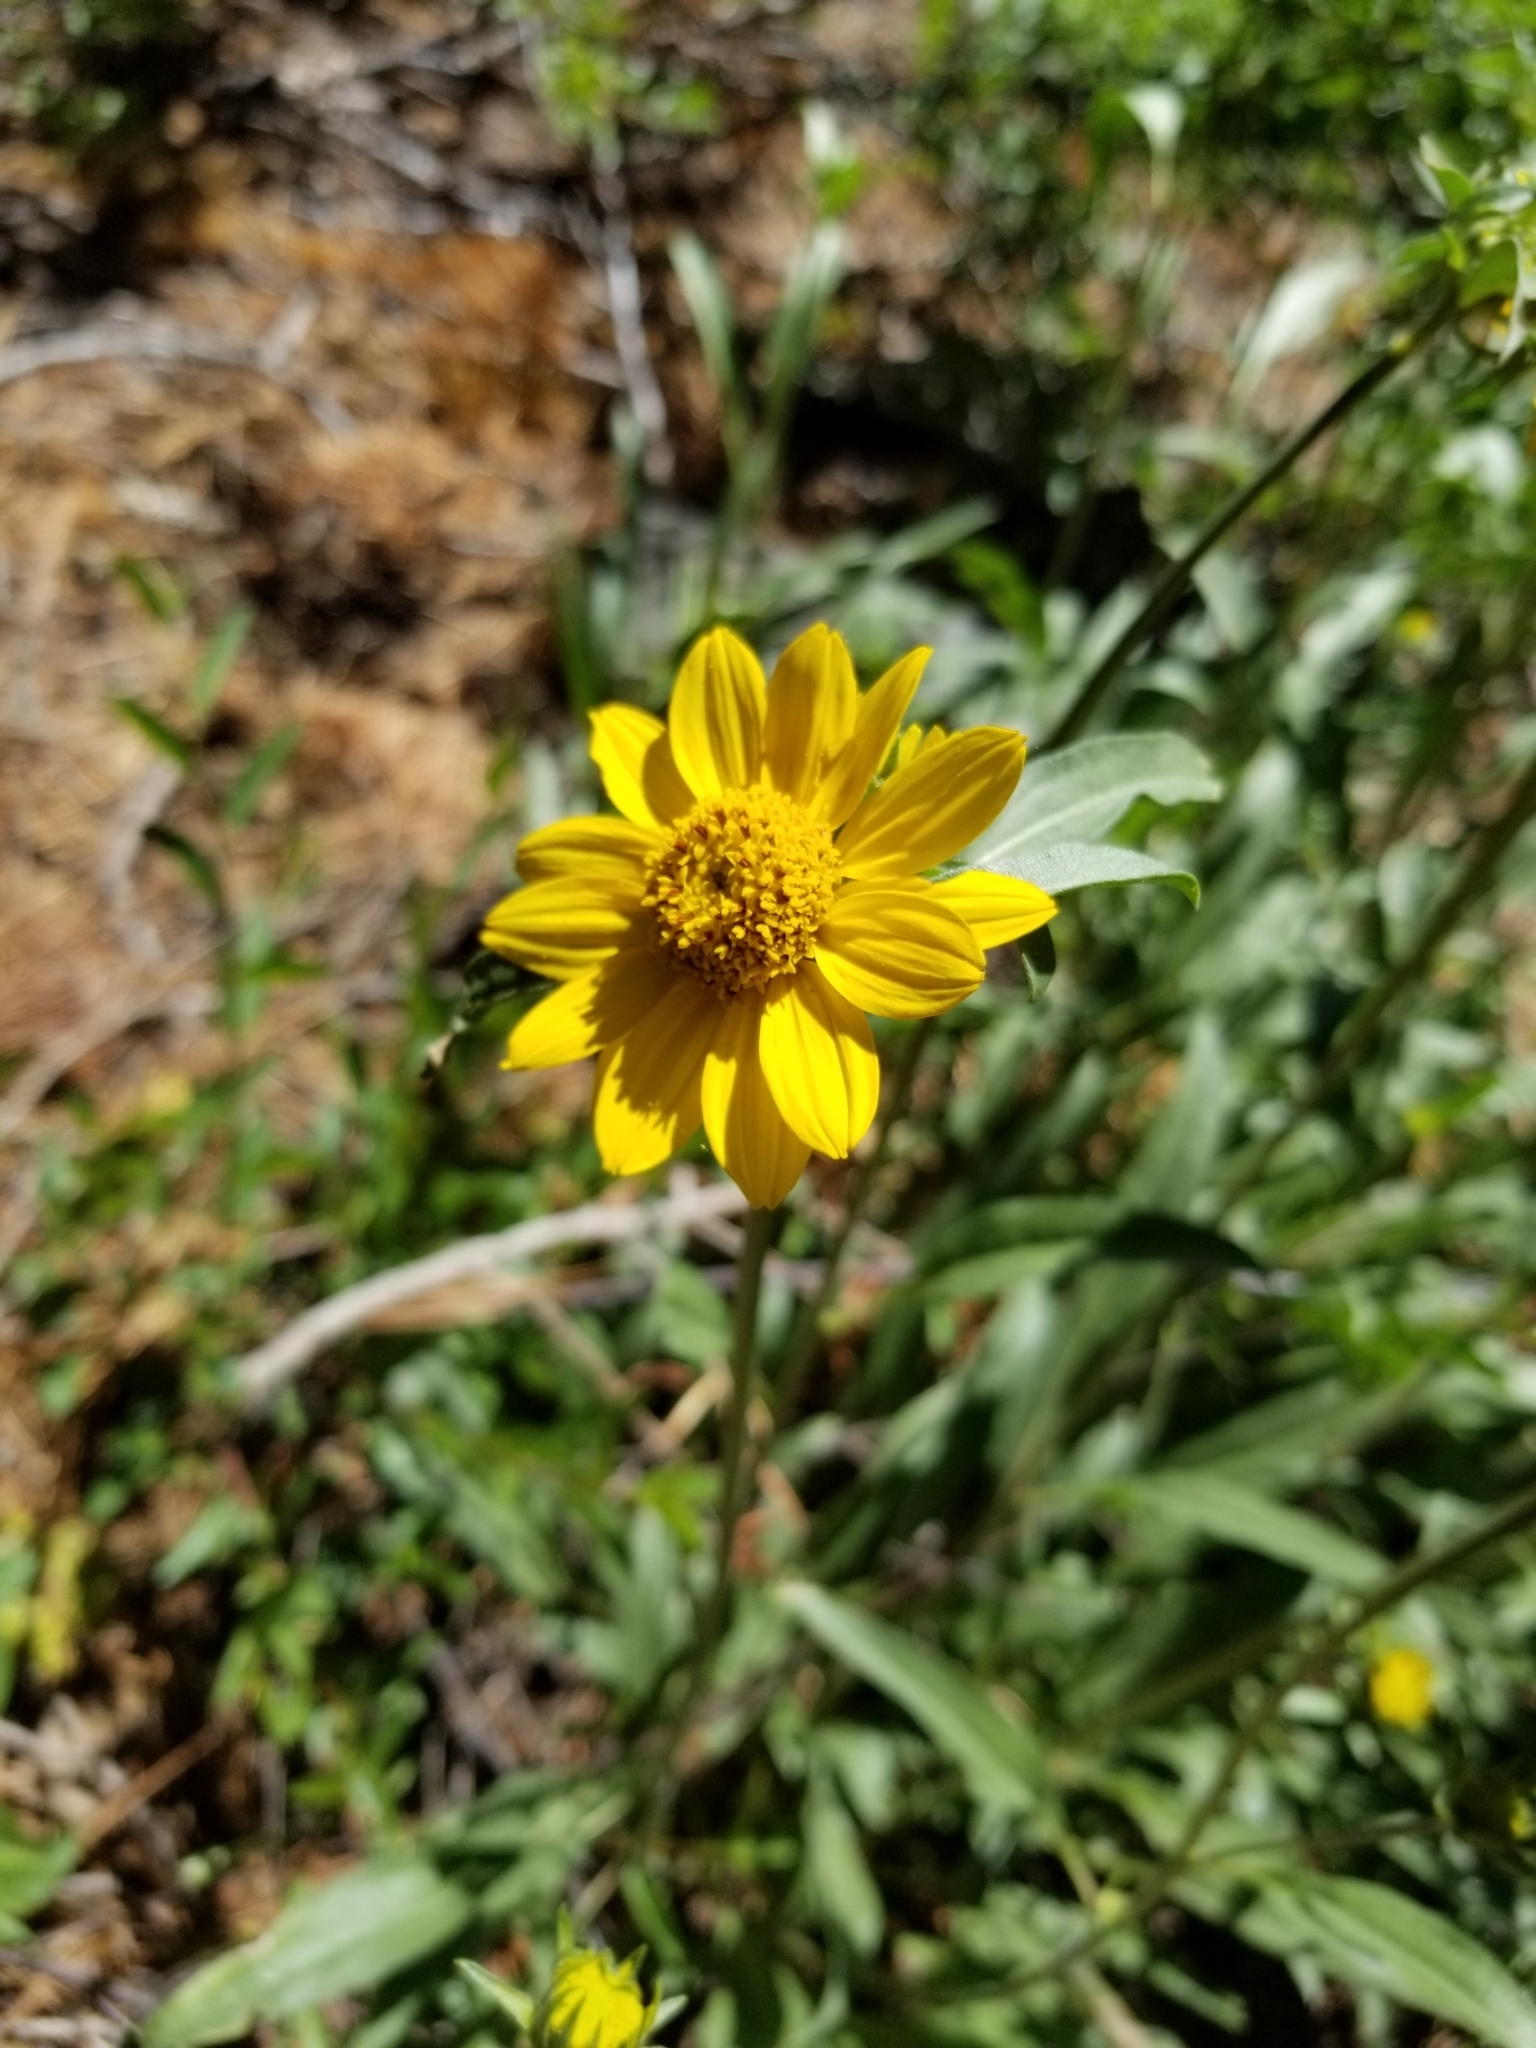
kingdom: Plantae
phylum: Tracheophyta
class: Magnoliopsida
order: Asterales
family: Asteraceae
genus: Helianthella
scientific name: Helianthella californica
